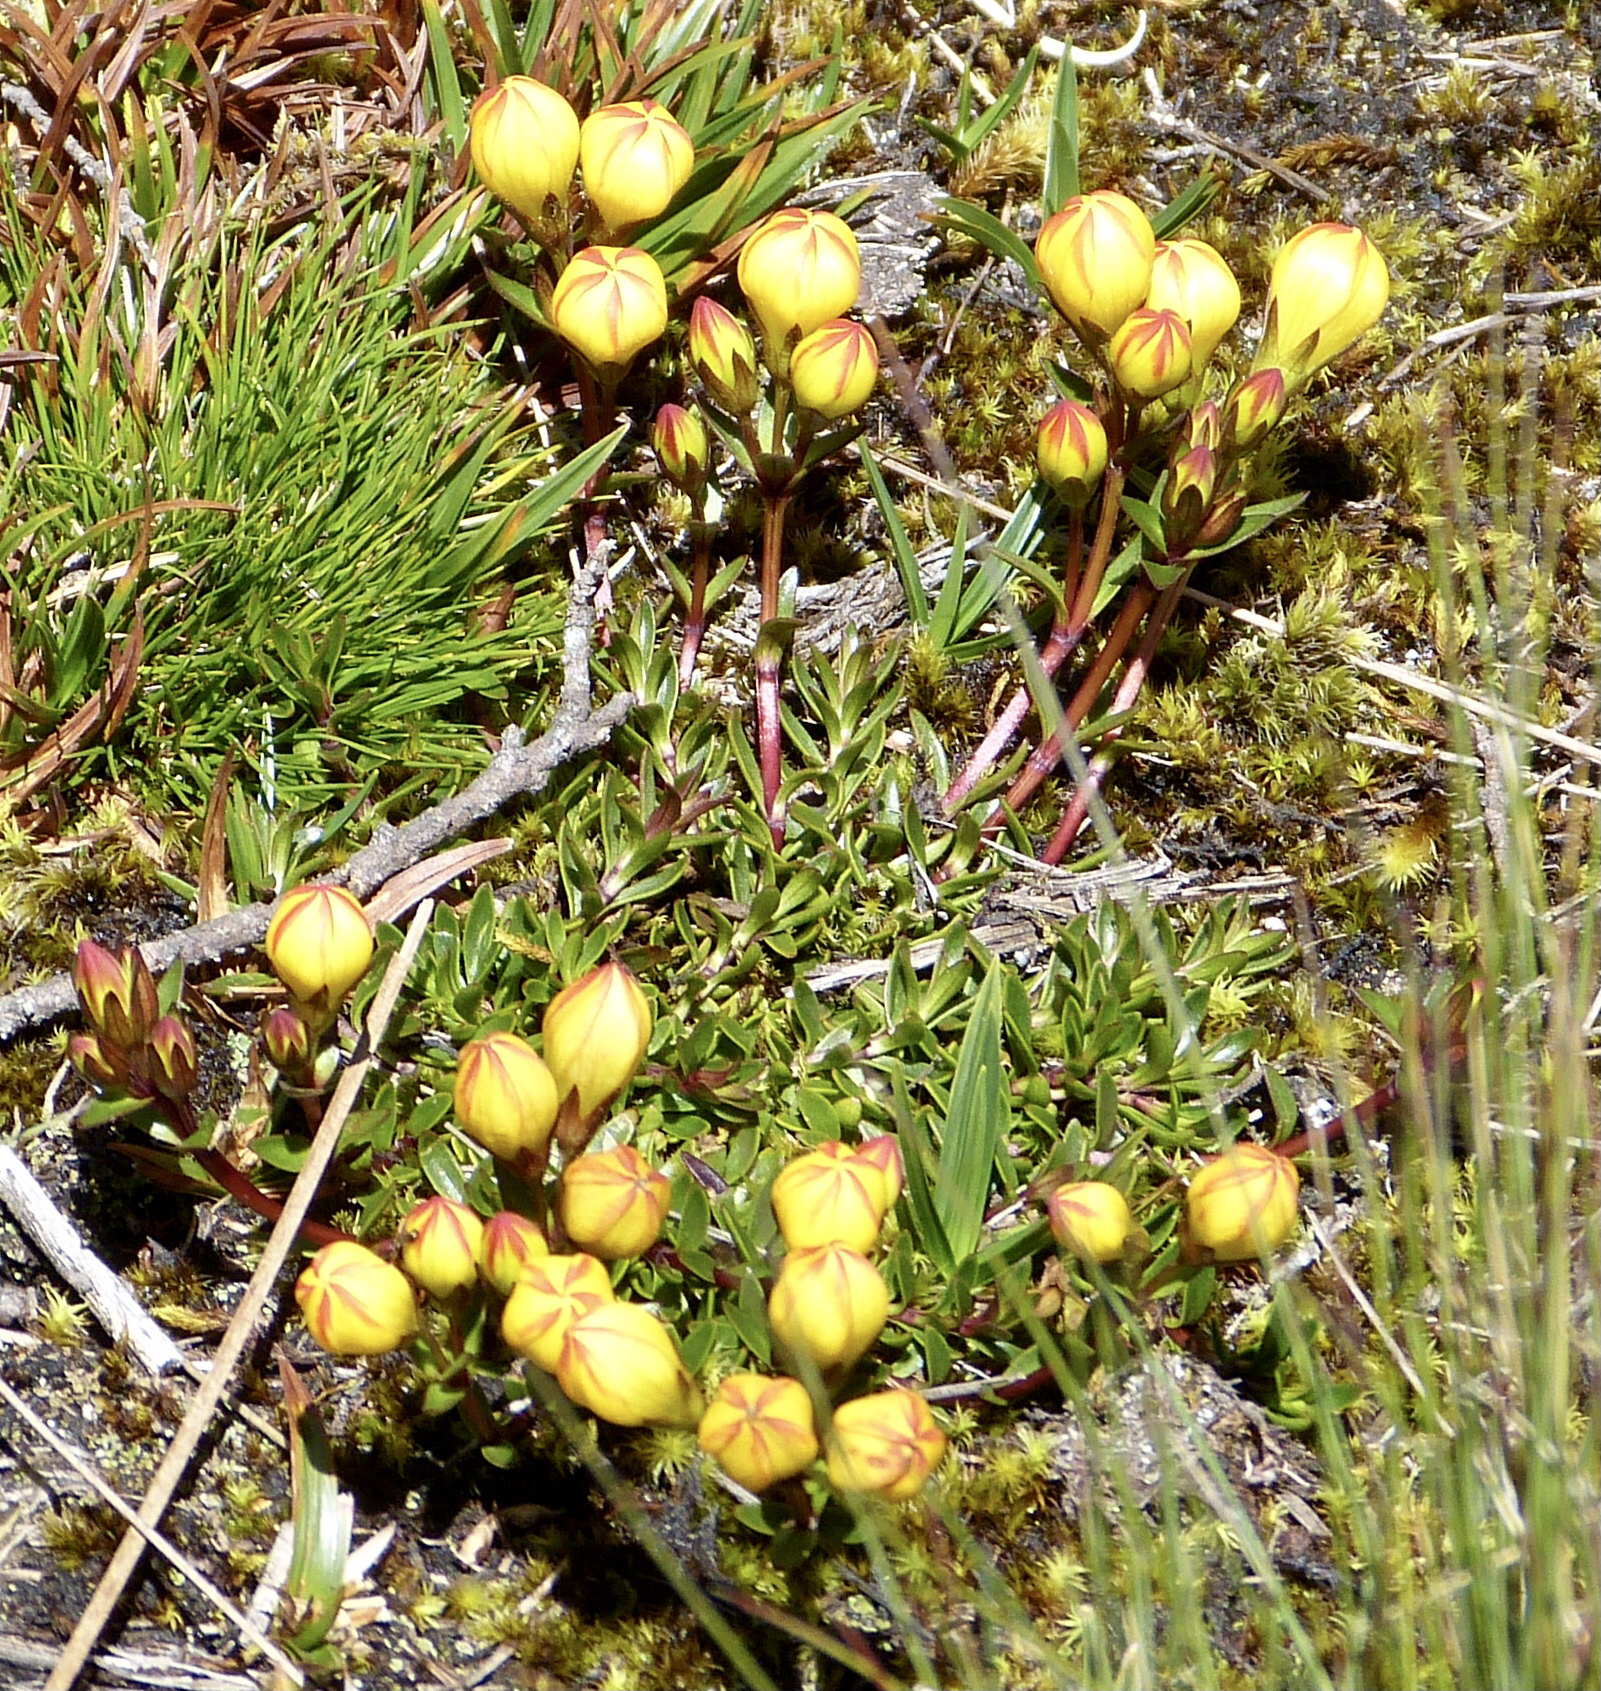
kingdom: Plantae
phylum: Tracheophyta
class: Magnoliopsida
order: Gentianales
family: Gentianaceae
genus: Gentianella
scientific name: Gentianella hirculus
